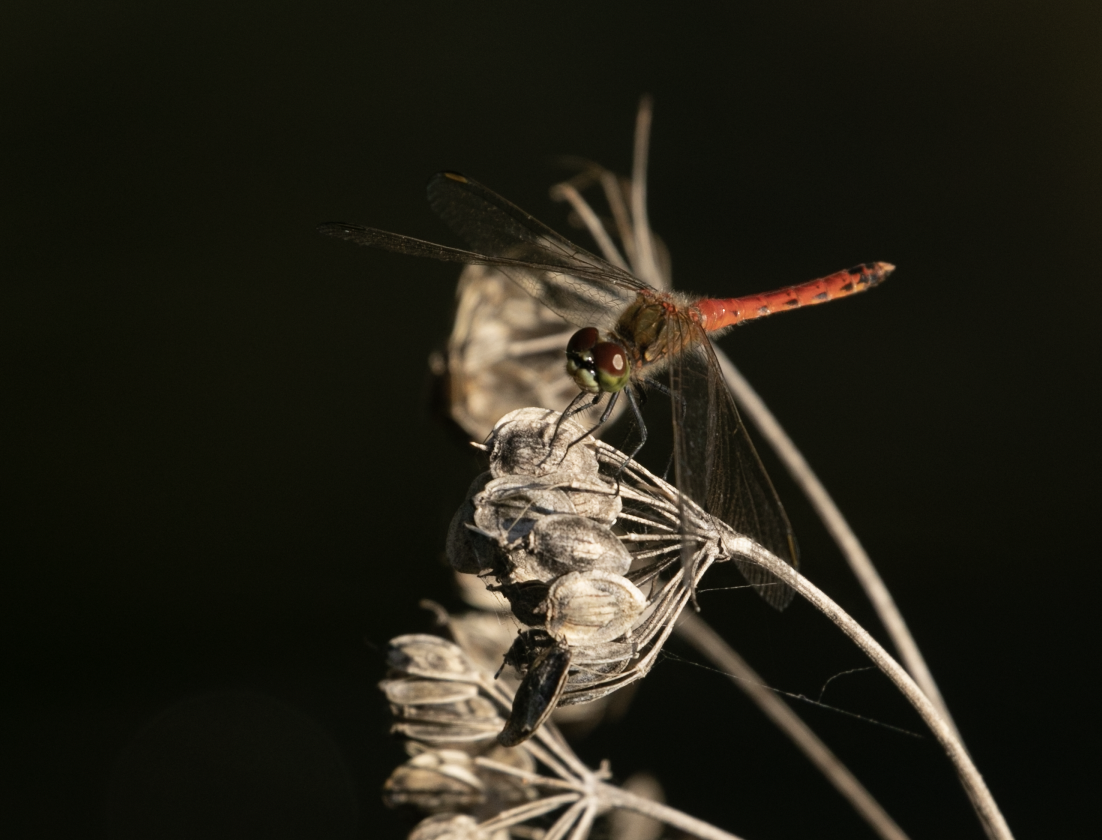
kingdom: Animalia
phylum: Arthropoda
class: Insecta
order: Odonata
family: Libellulidae
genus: Sympetrum
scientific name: Sympetrum depressiusculum
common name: Spotted darter
